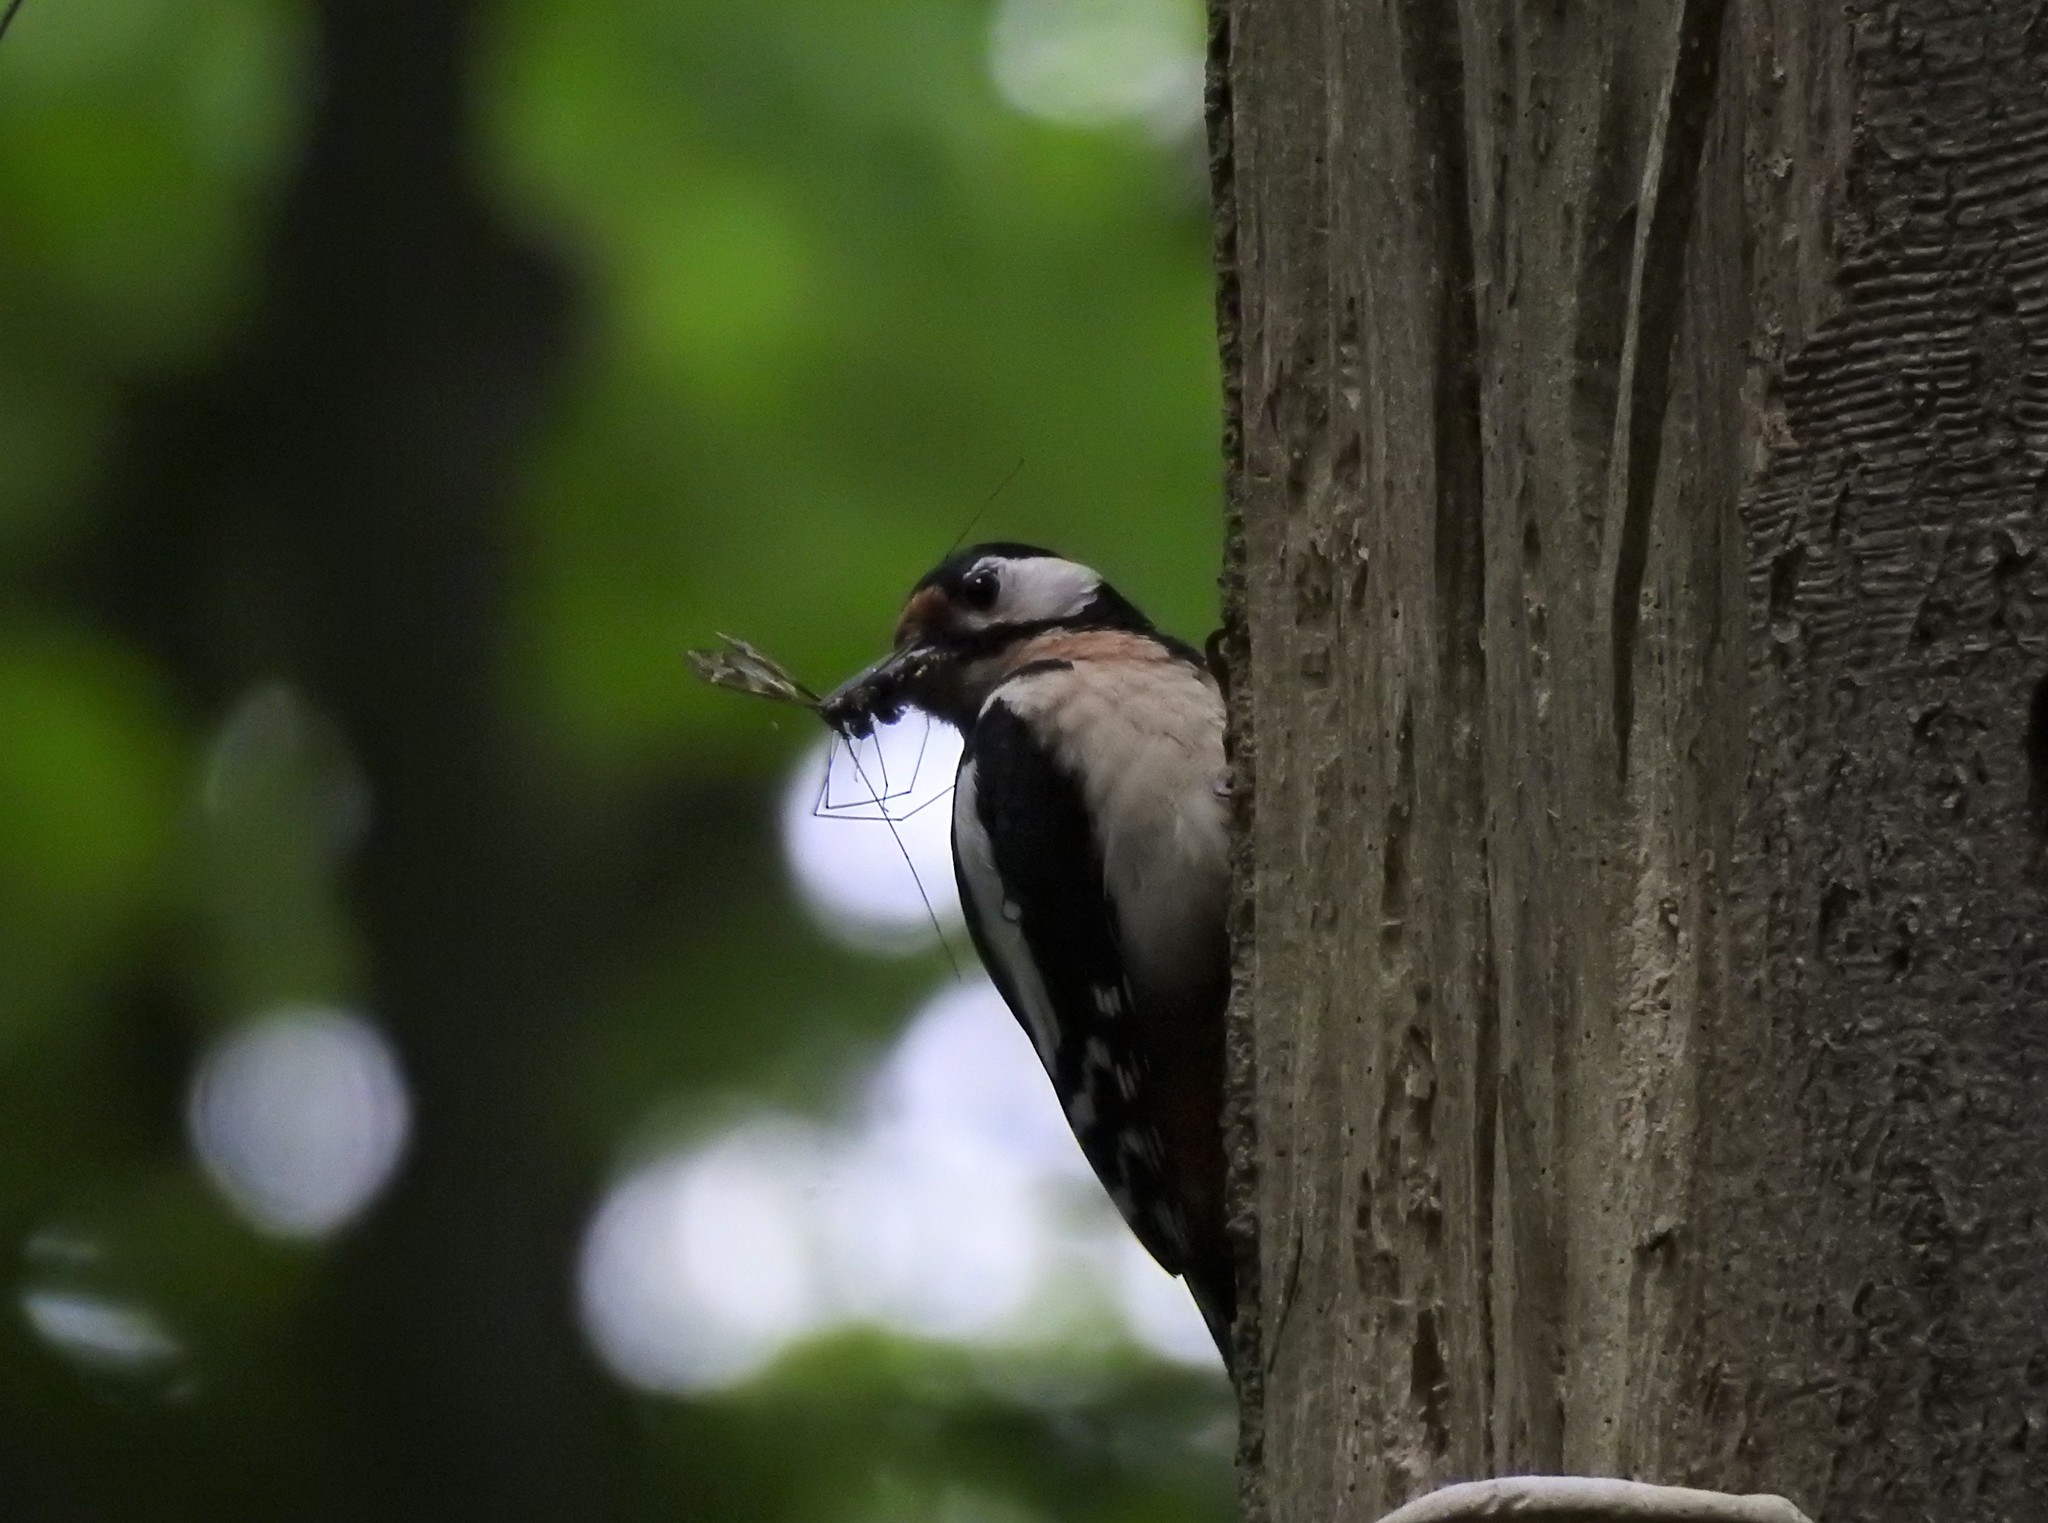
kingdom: Animalia
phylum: Chordata
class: Aves
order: Piciformes
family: Picidae
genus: Dendrocopos
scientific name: Dendrocopos major
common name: Great spotted woodpecker
